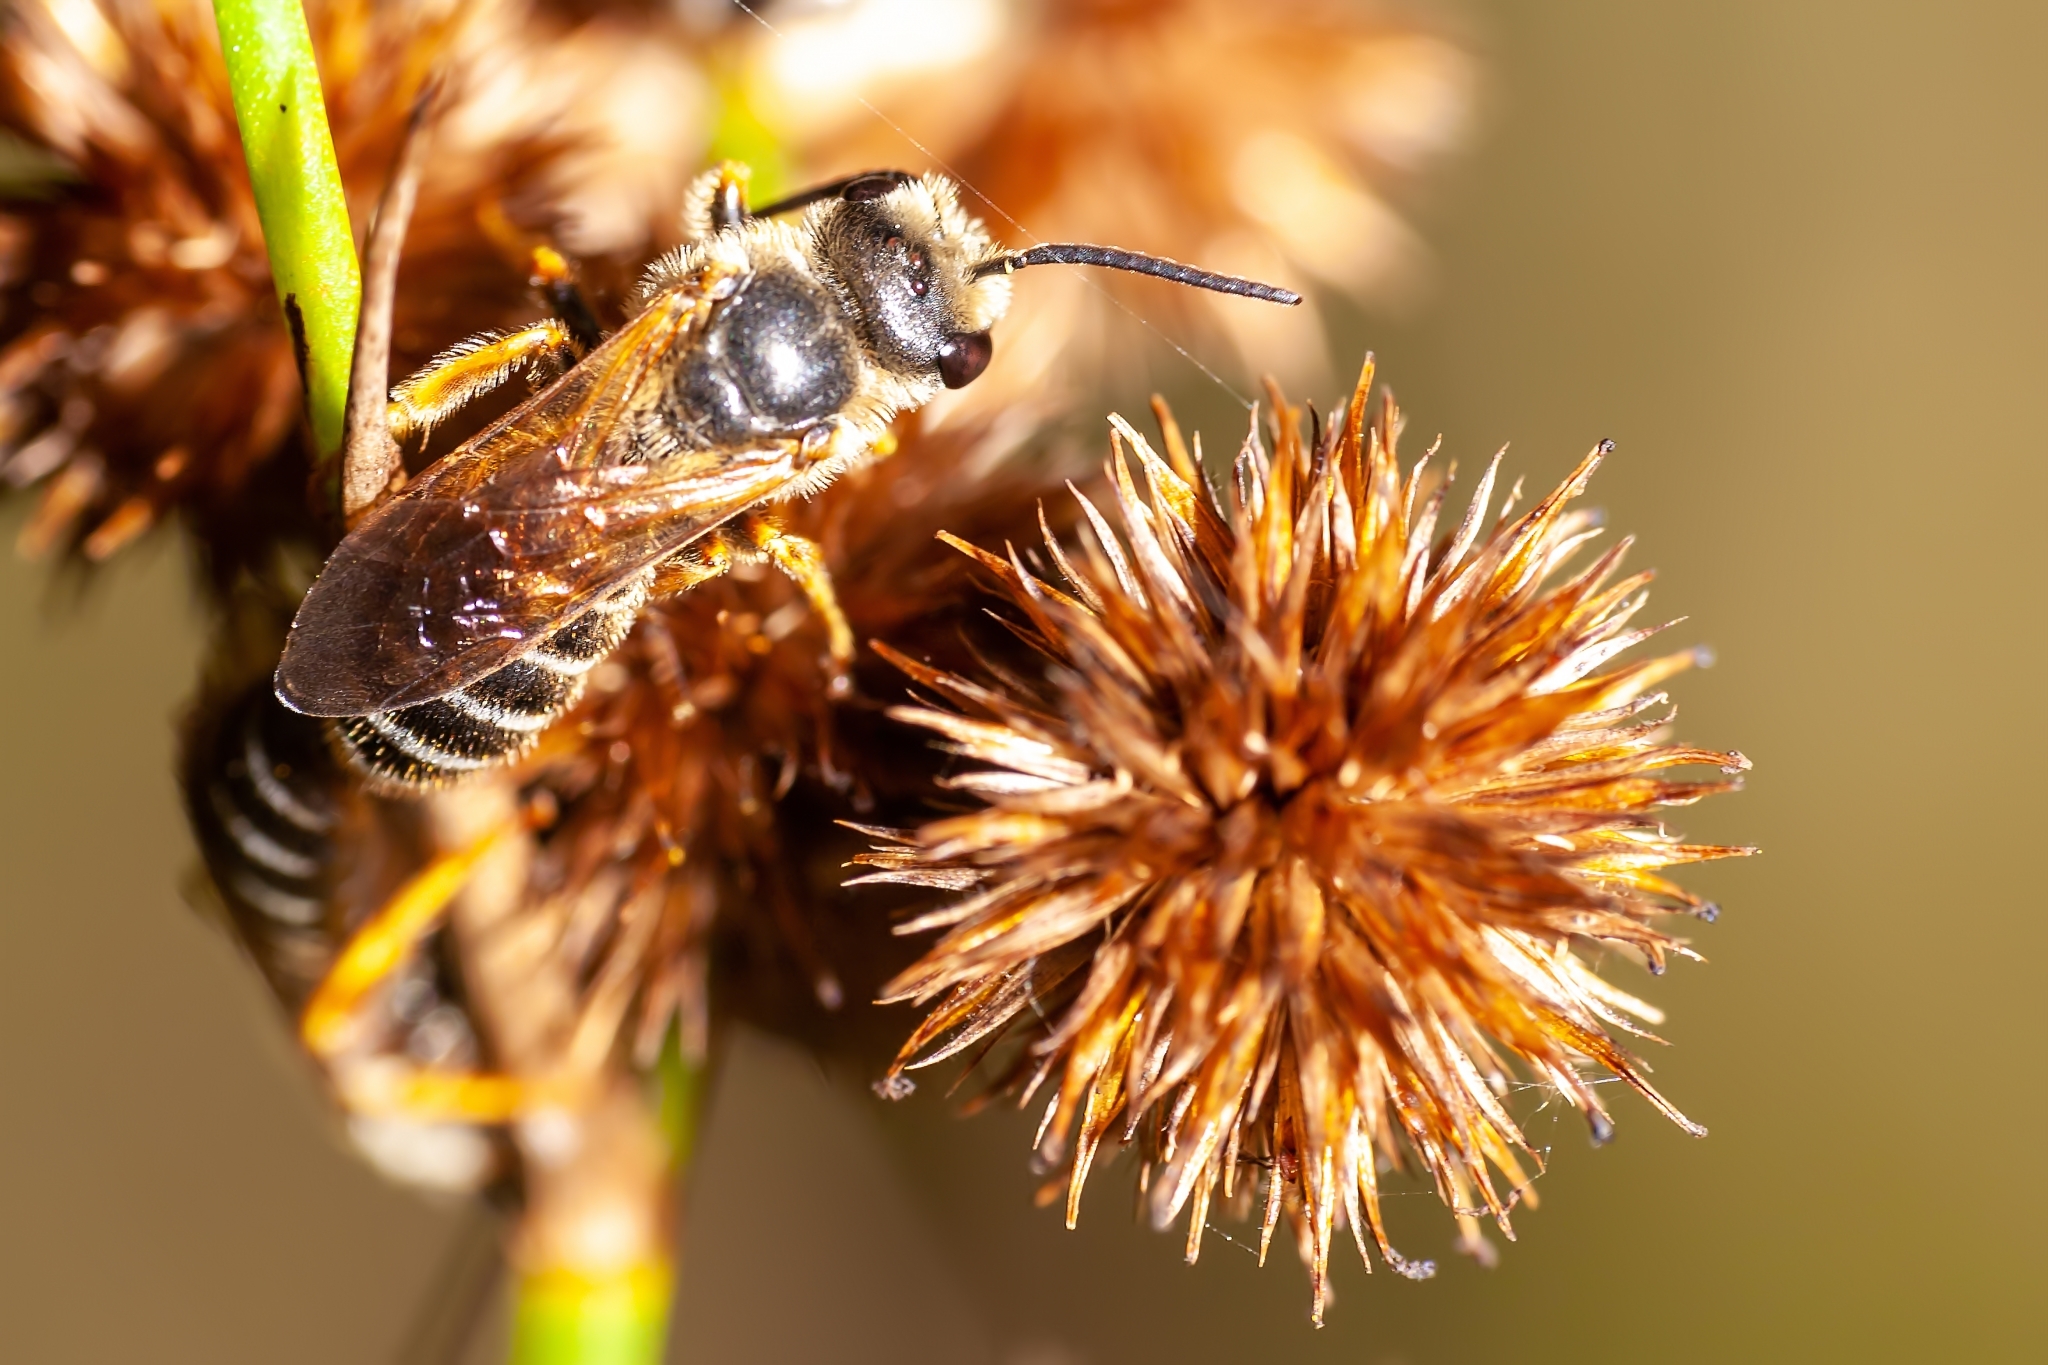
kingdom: Animalia
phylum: Arthropoda
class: Insecta
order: Hymenoptera
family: Halictidae
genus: Halictus
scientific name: Halictus poeyi
